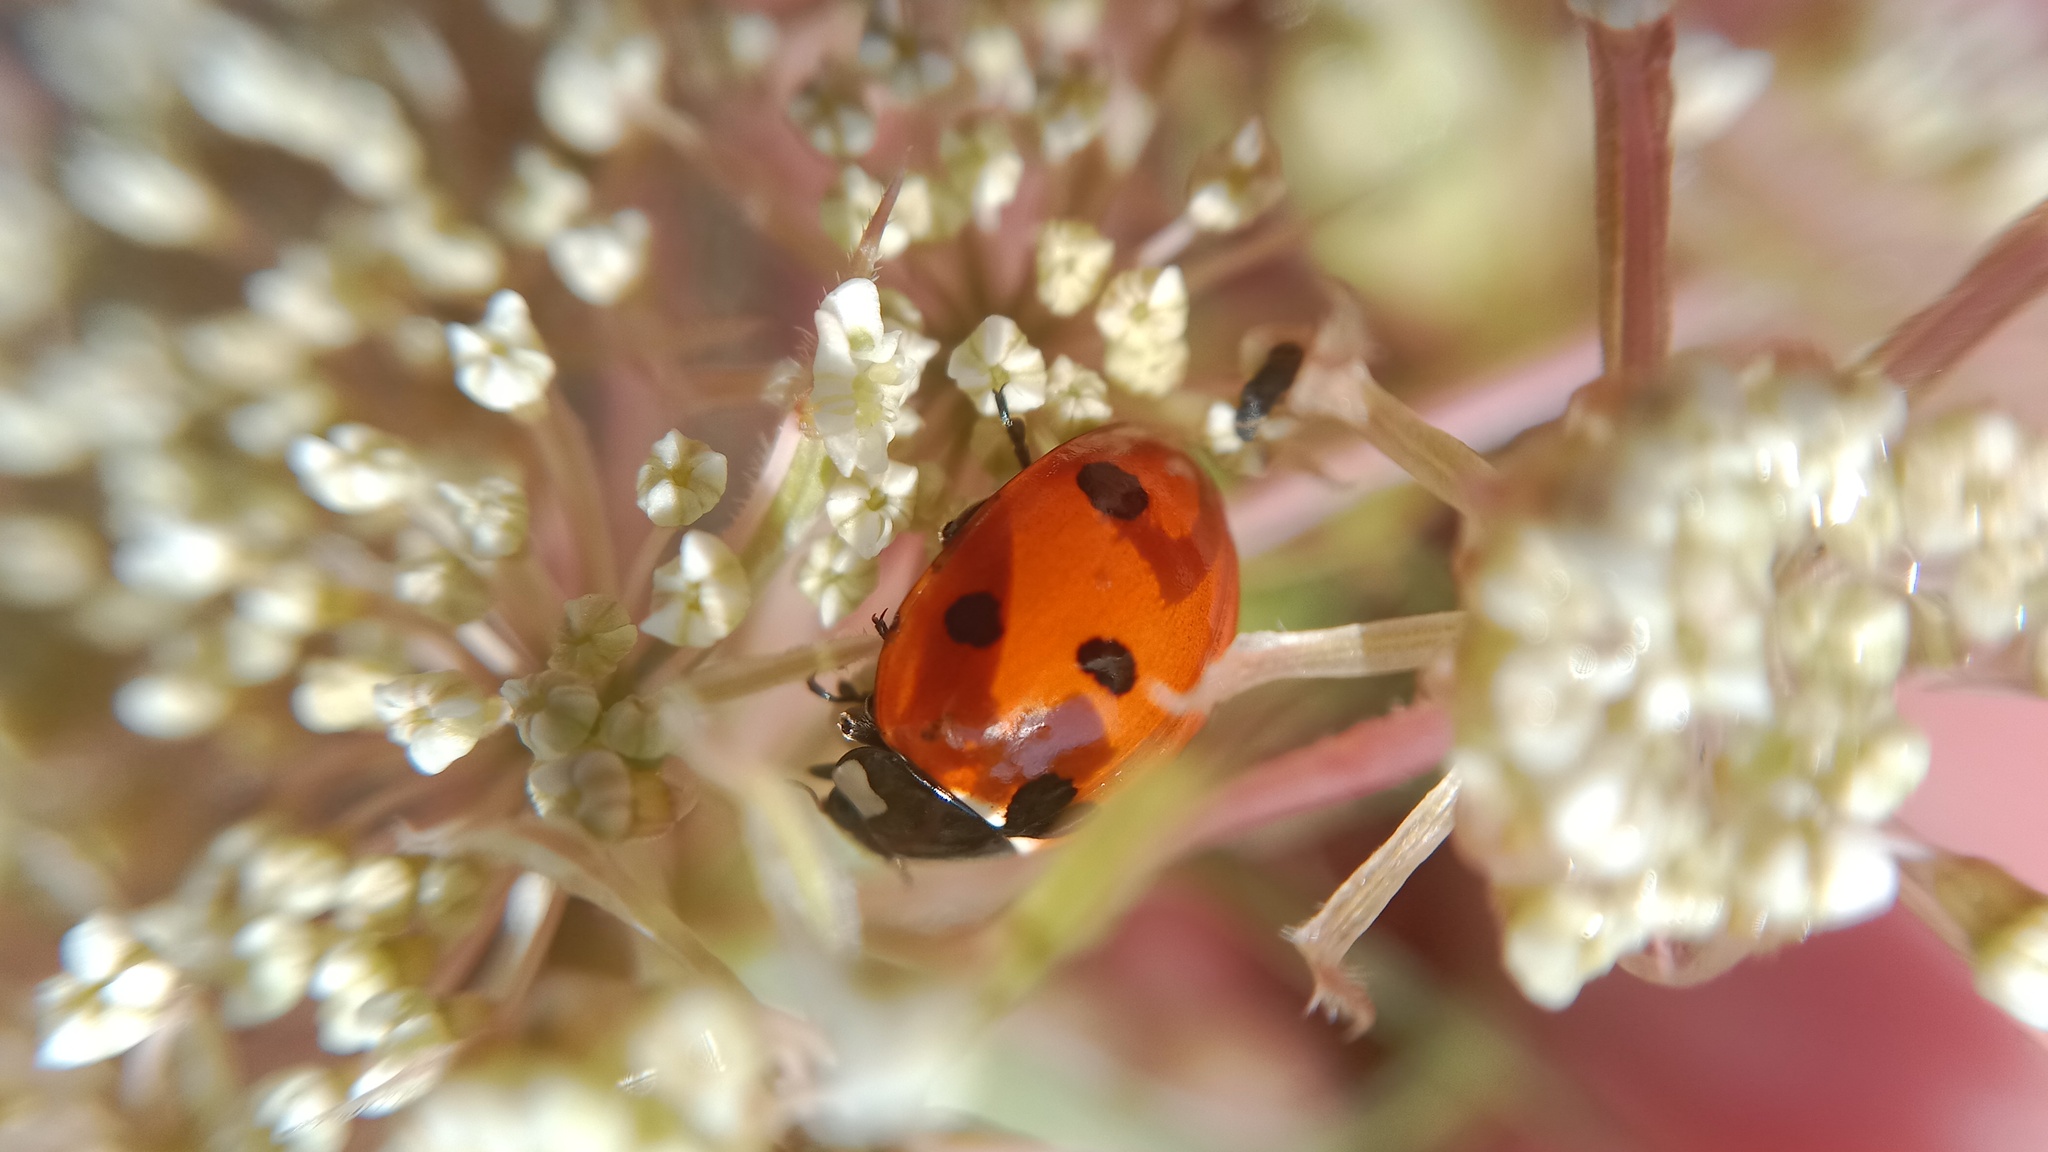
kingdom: Animalia
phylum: Arthropoda
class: Insecta
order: Coleoptera
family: Coccinellidae
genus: Coccinella
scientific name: Coccinella septempunctata
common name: Sevenspotted lady beetle
